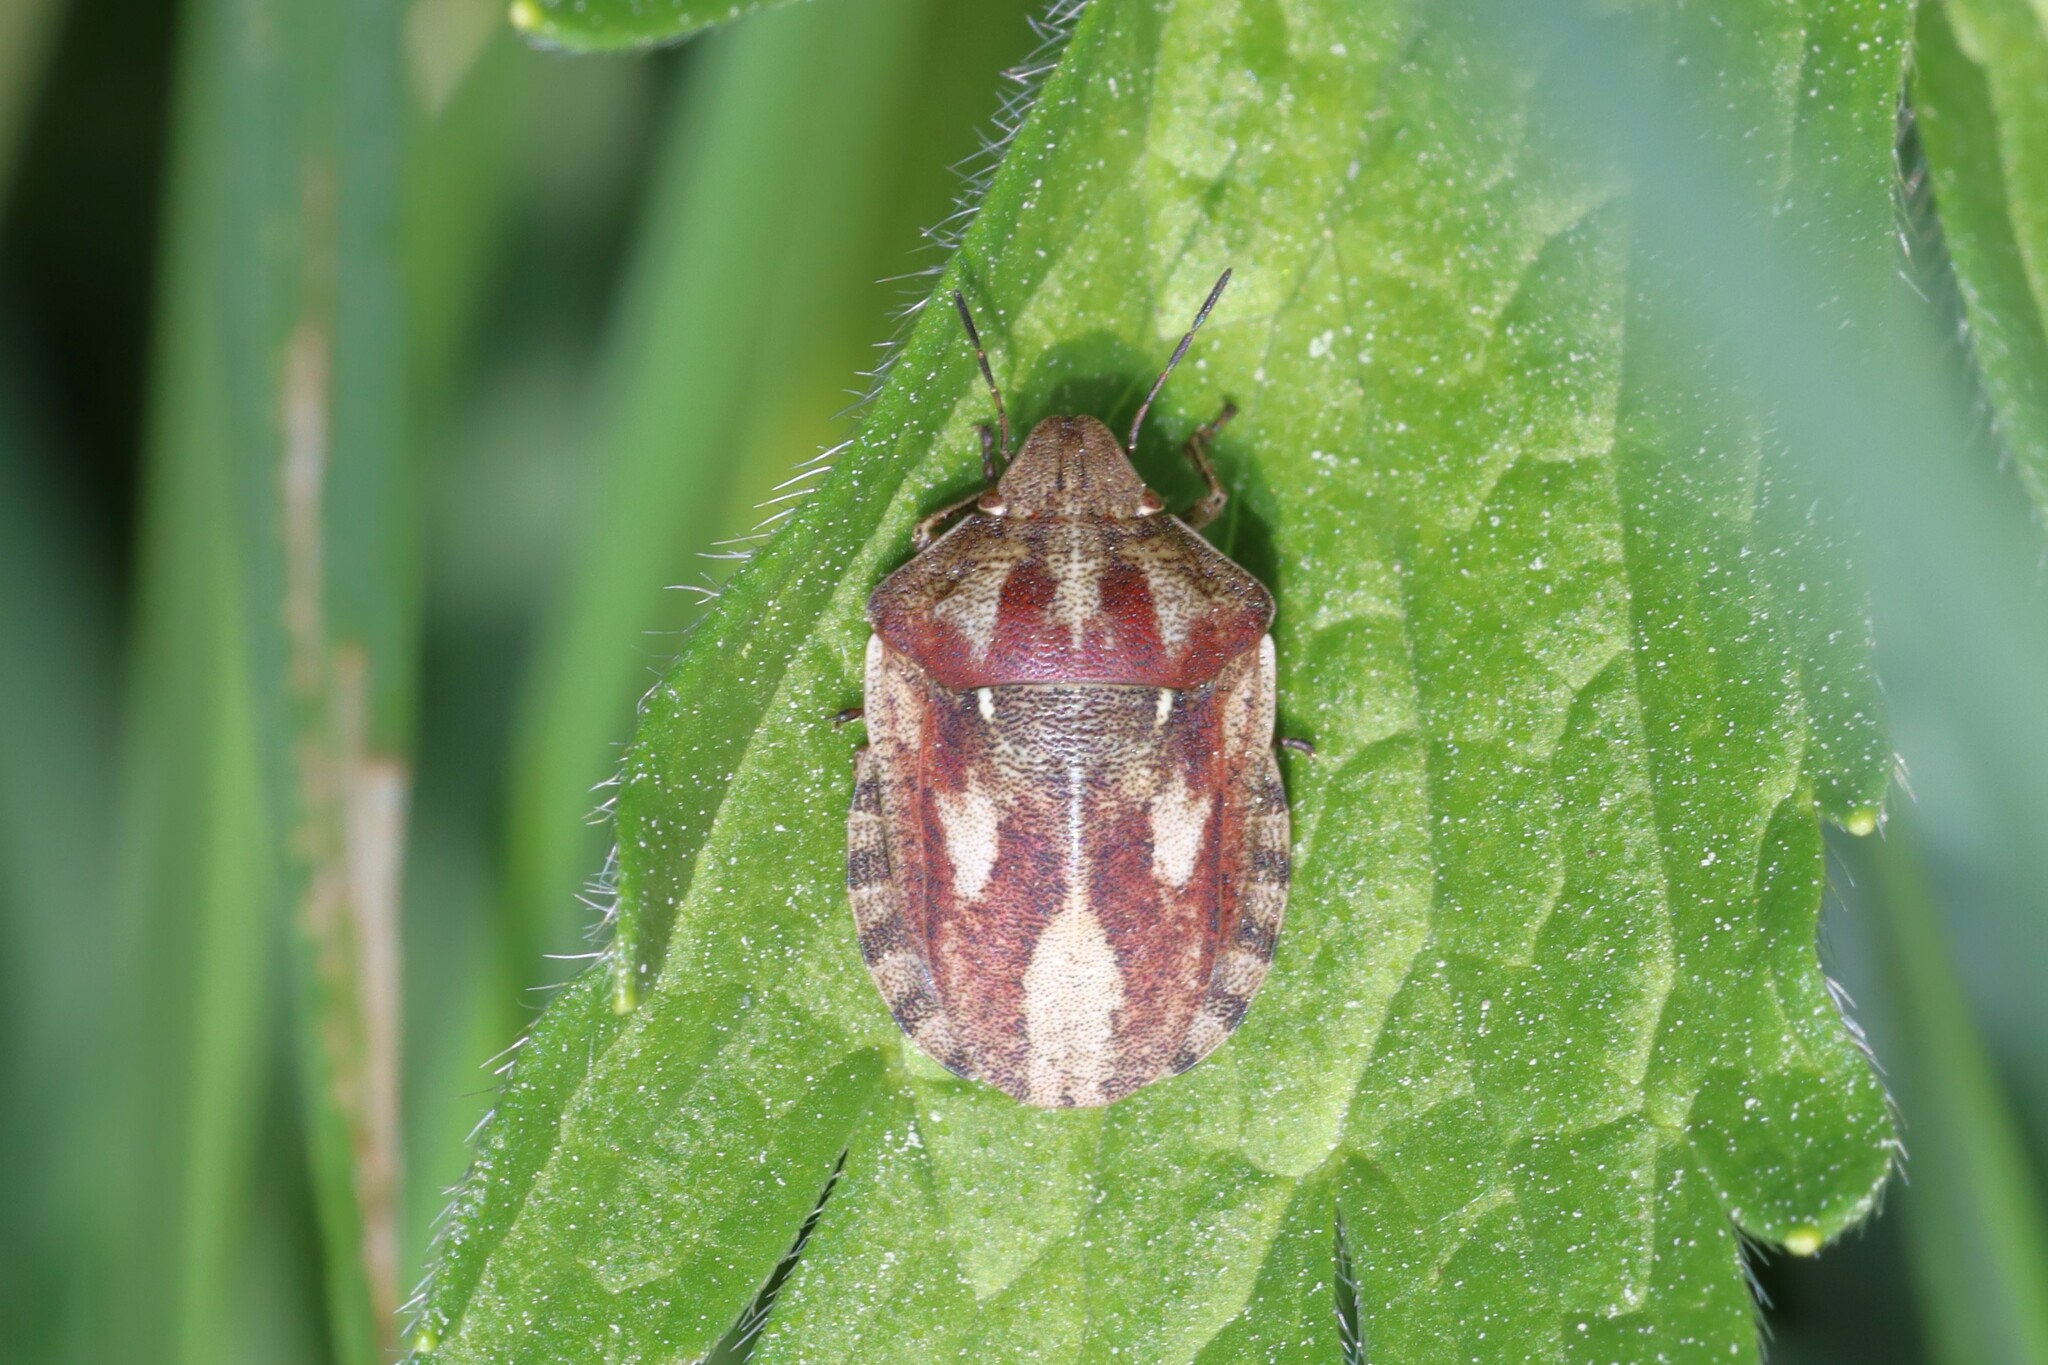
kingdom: Animalia
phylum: Arthropoda
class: Insecta
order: Hemiptera
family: Scutelleridae
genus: Eurygaster
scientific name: Eurygaster testudinaria
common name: Tortoise bug
